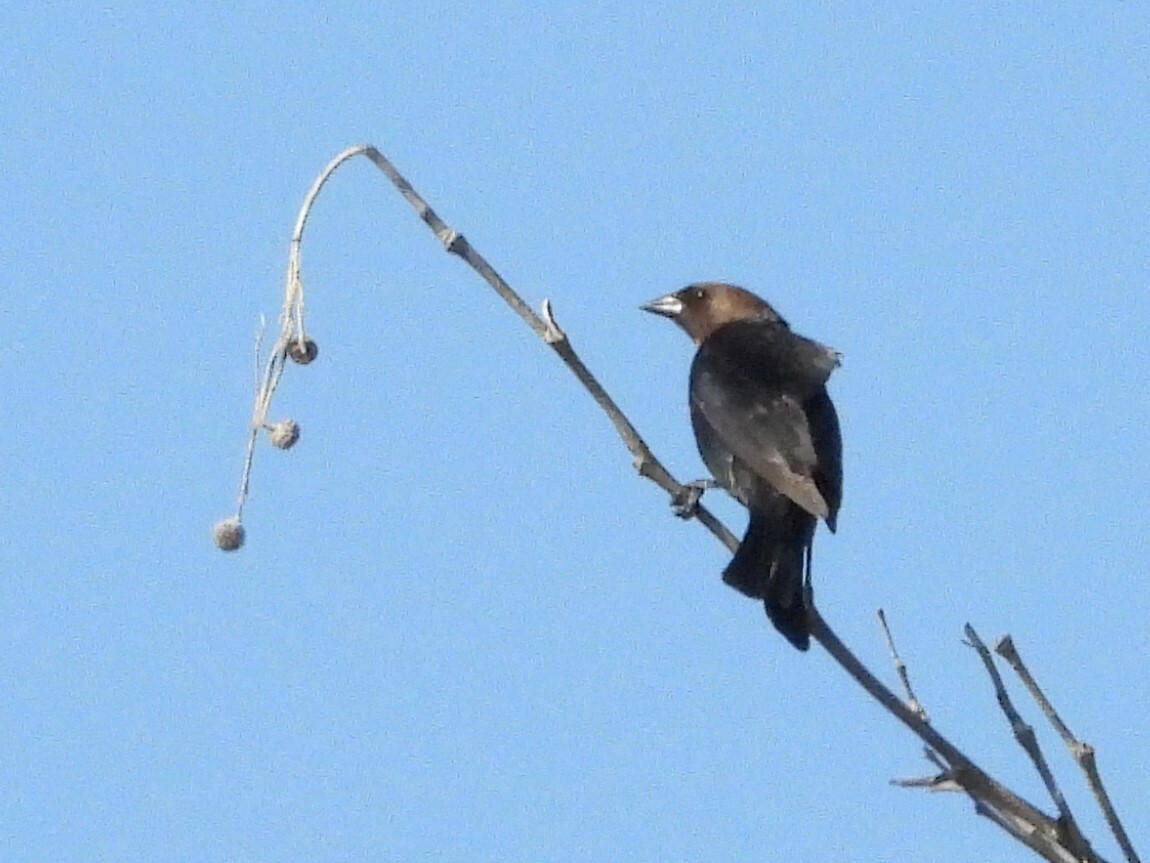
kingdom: Animalia
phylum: Chordata
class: Aves
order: Passeriformes
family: Icteridae
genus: Molothrus
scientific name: Molothrus ater
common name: Brown-headed cowbird
